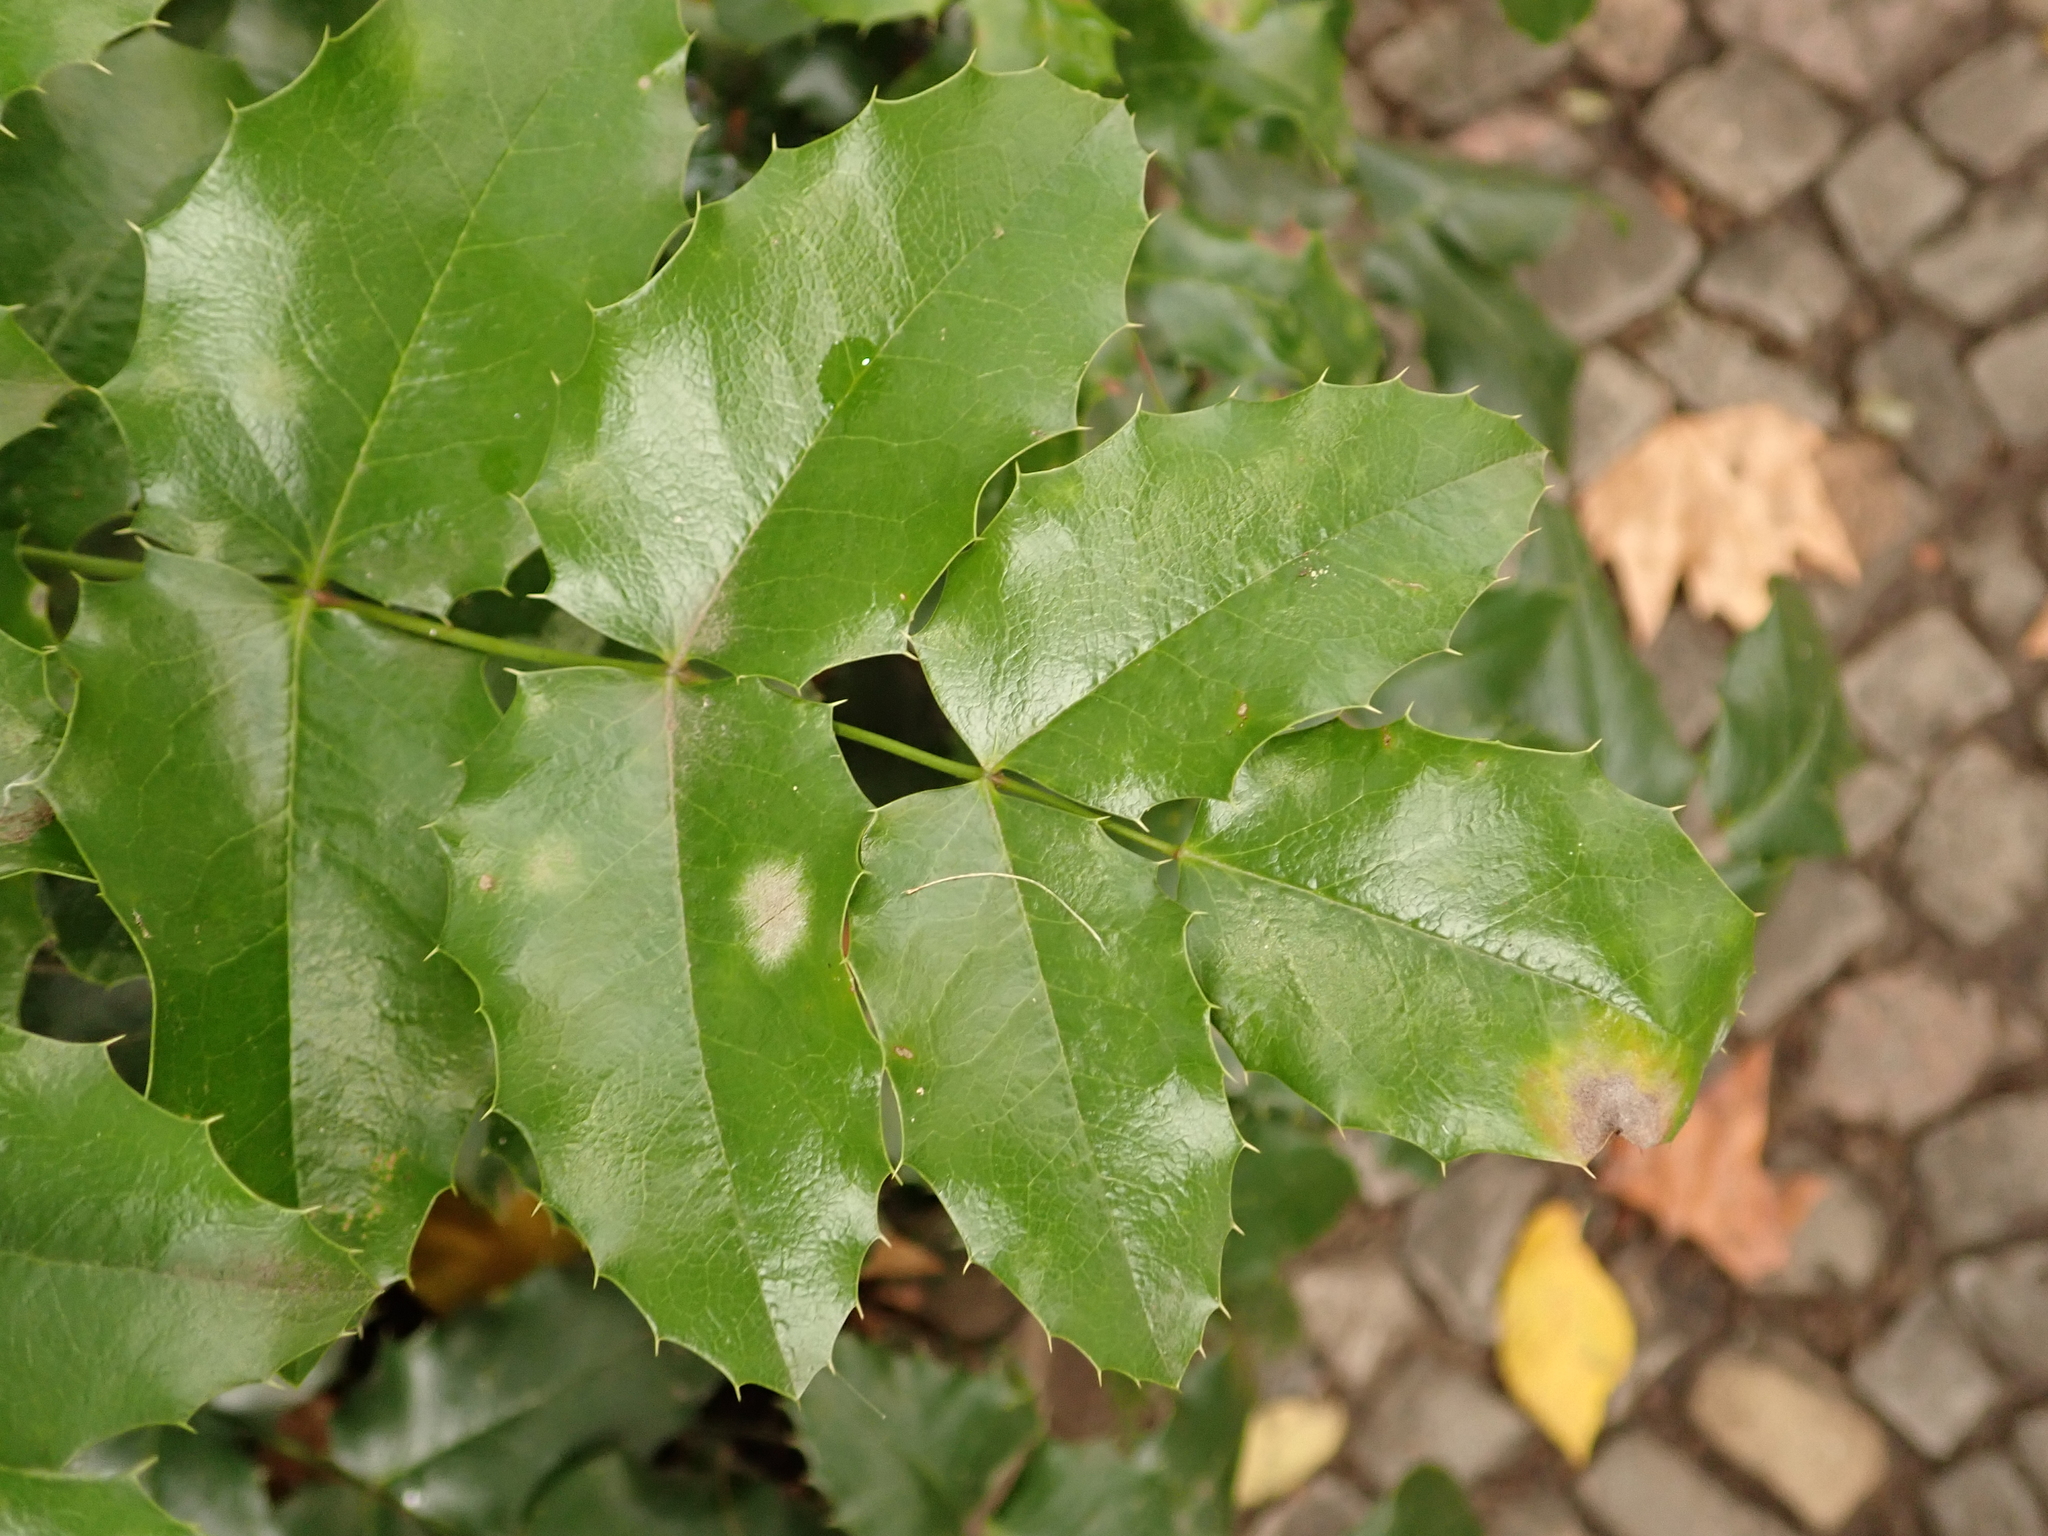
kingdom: Plantae
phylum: Tracheophyta
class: Magnoliopsida
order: Ranunculales
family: Berberidaceae
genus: Mahonia
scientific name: Mahonia aquifolium
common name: Oregon-grape
